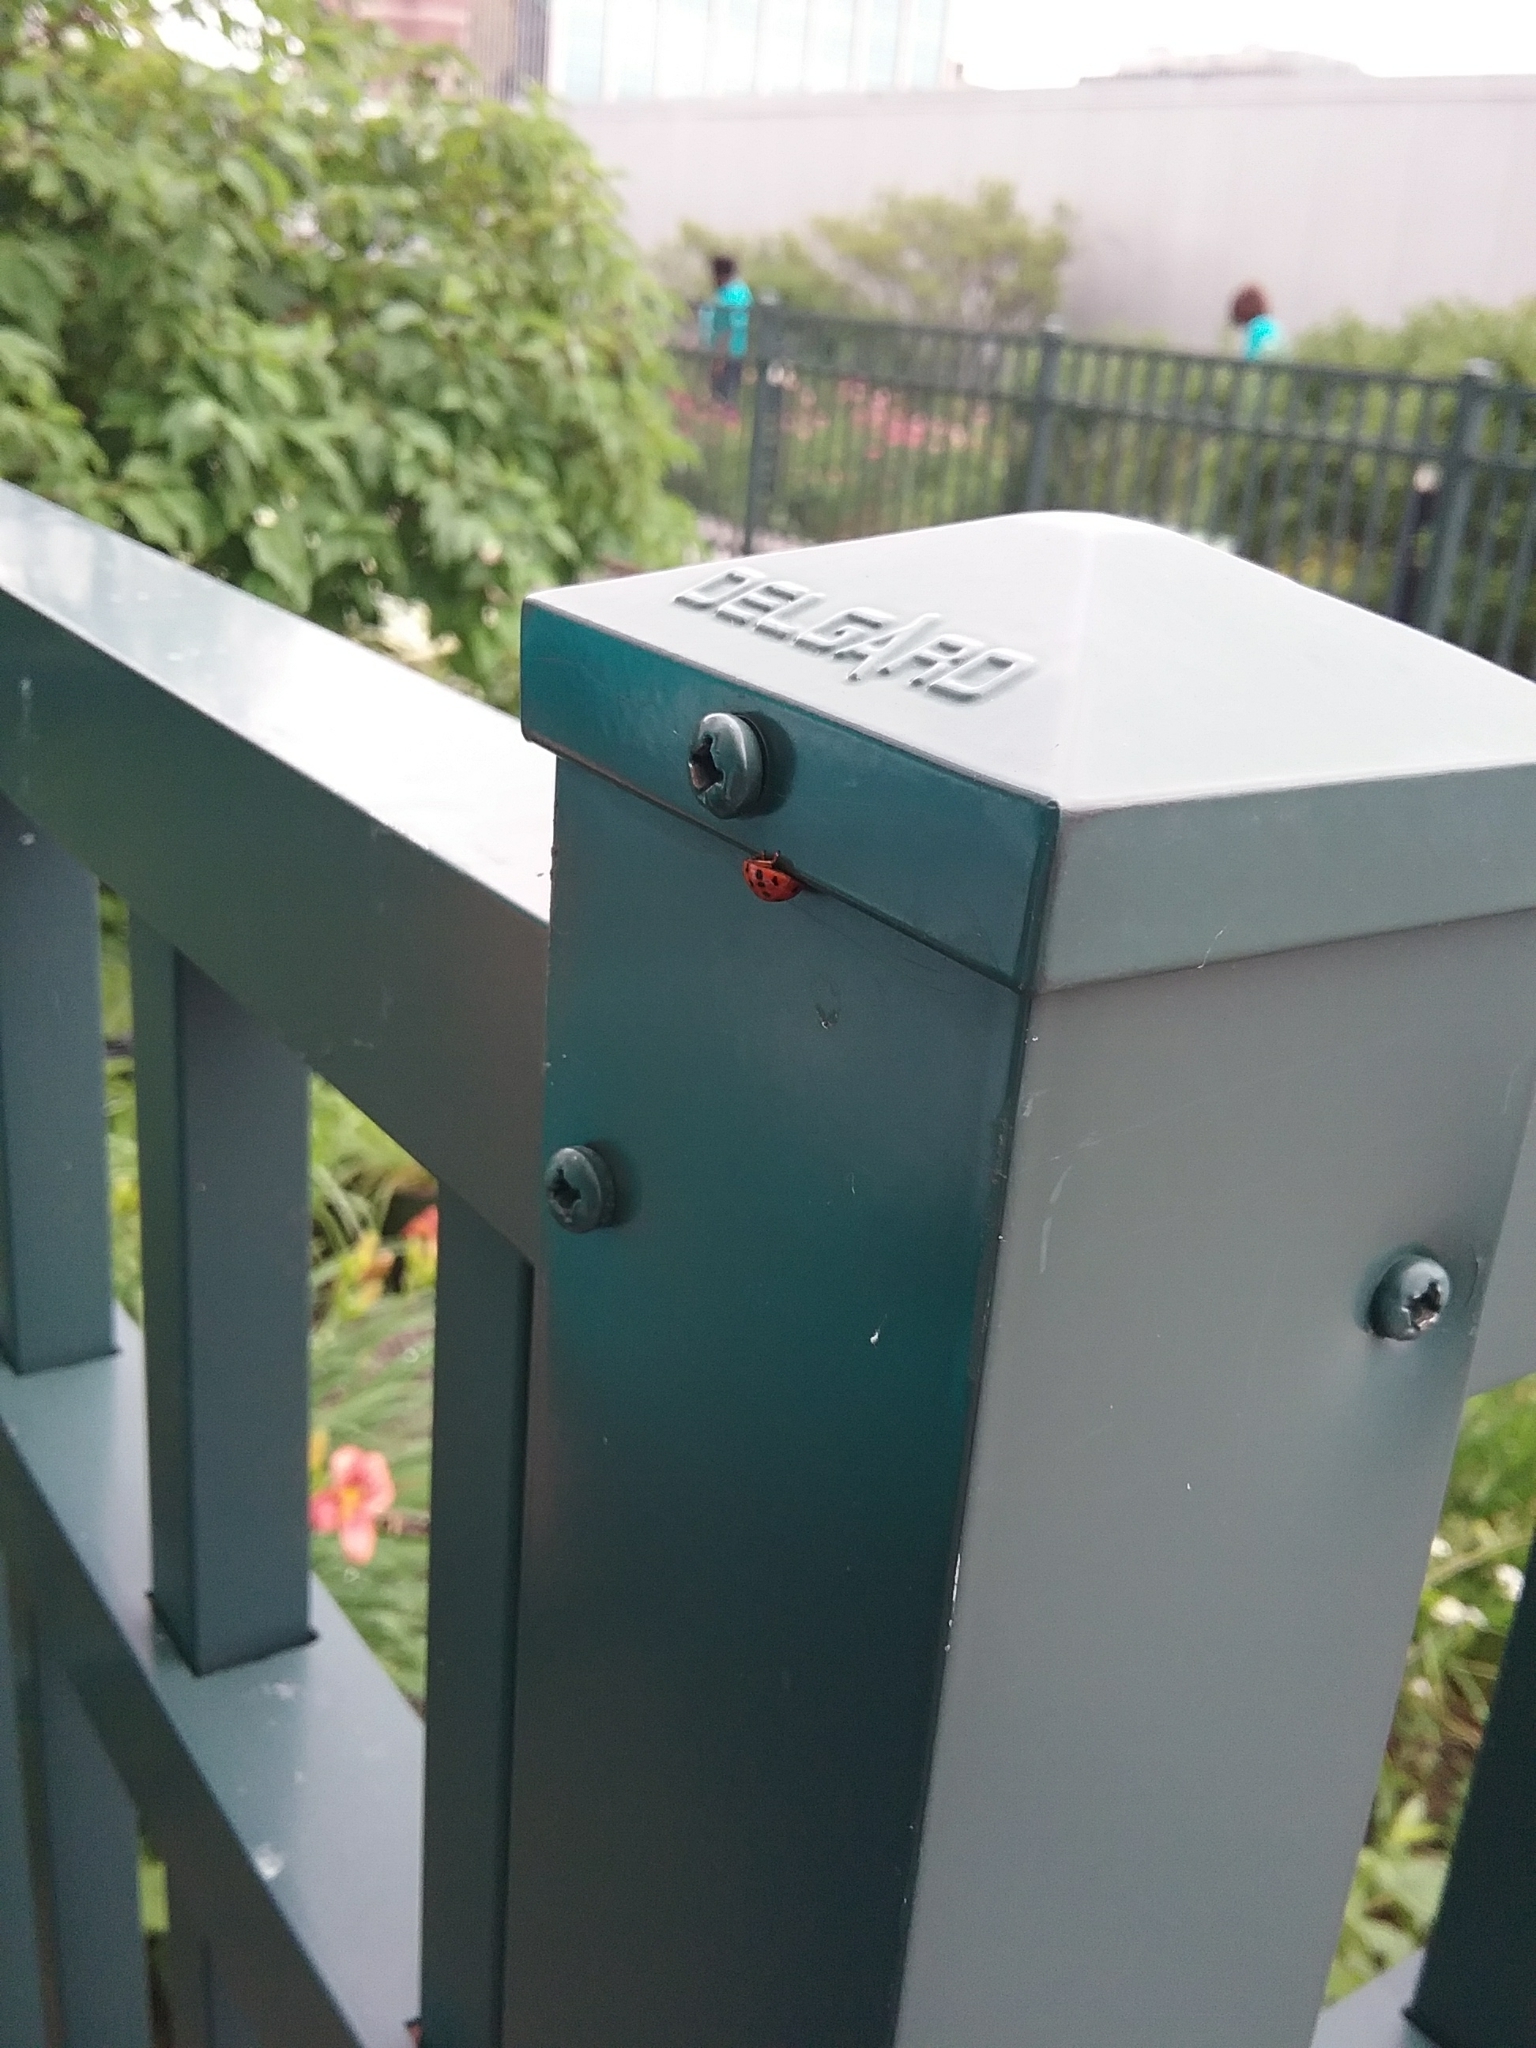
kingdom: Animalia
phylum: Arthropoda
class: Insecta
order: Coleoptera
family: Coccinellidae
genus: Harmonia
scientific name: Harmonia axyridis
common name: Harlequin ladybird
